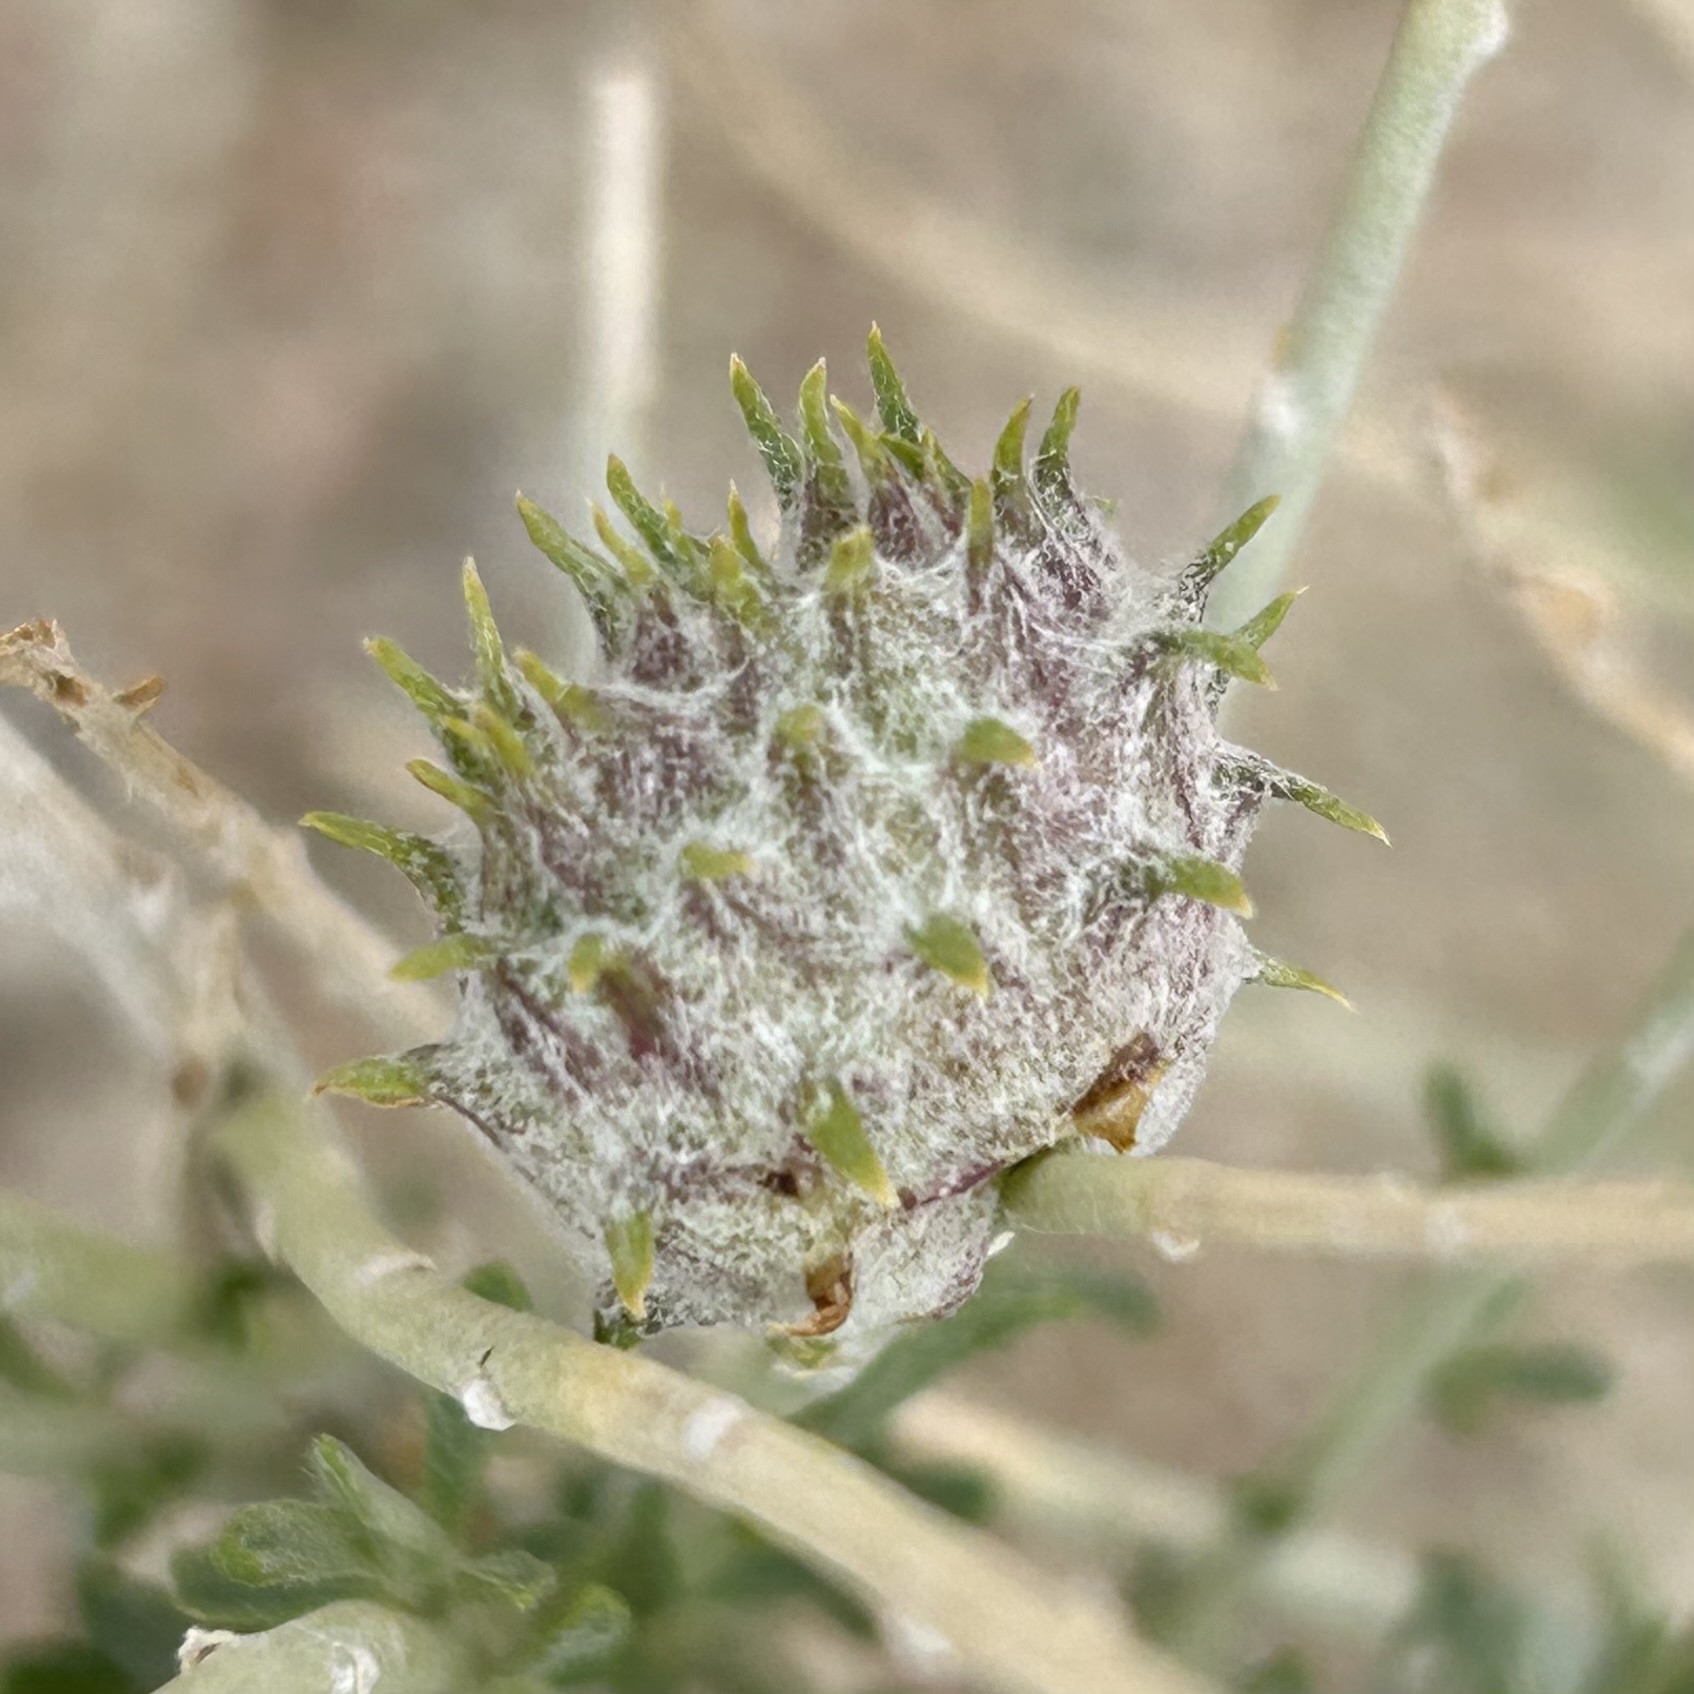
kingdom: Animalia
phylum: Arthropoda
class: Insecta
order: Diptera
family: Cecidomyiidae
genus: Rhopalomyia
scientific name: Rhopalomyia utahensis
